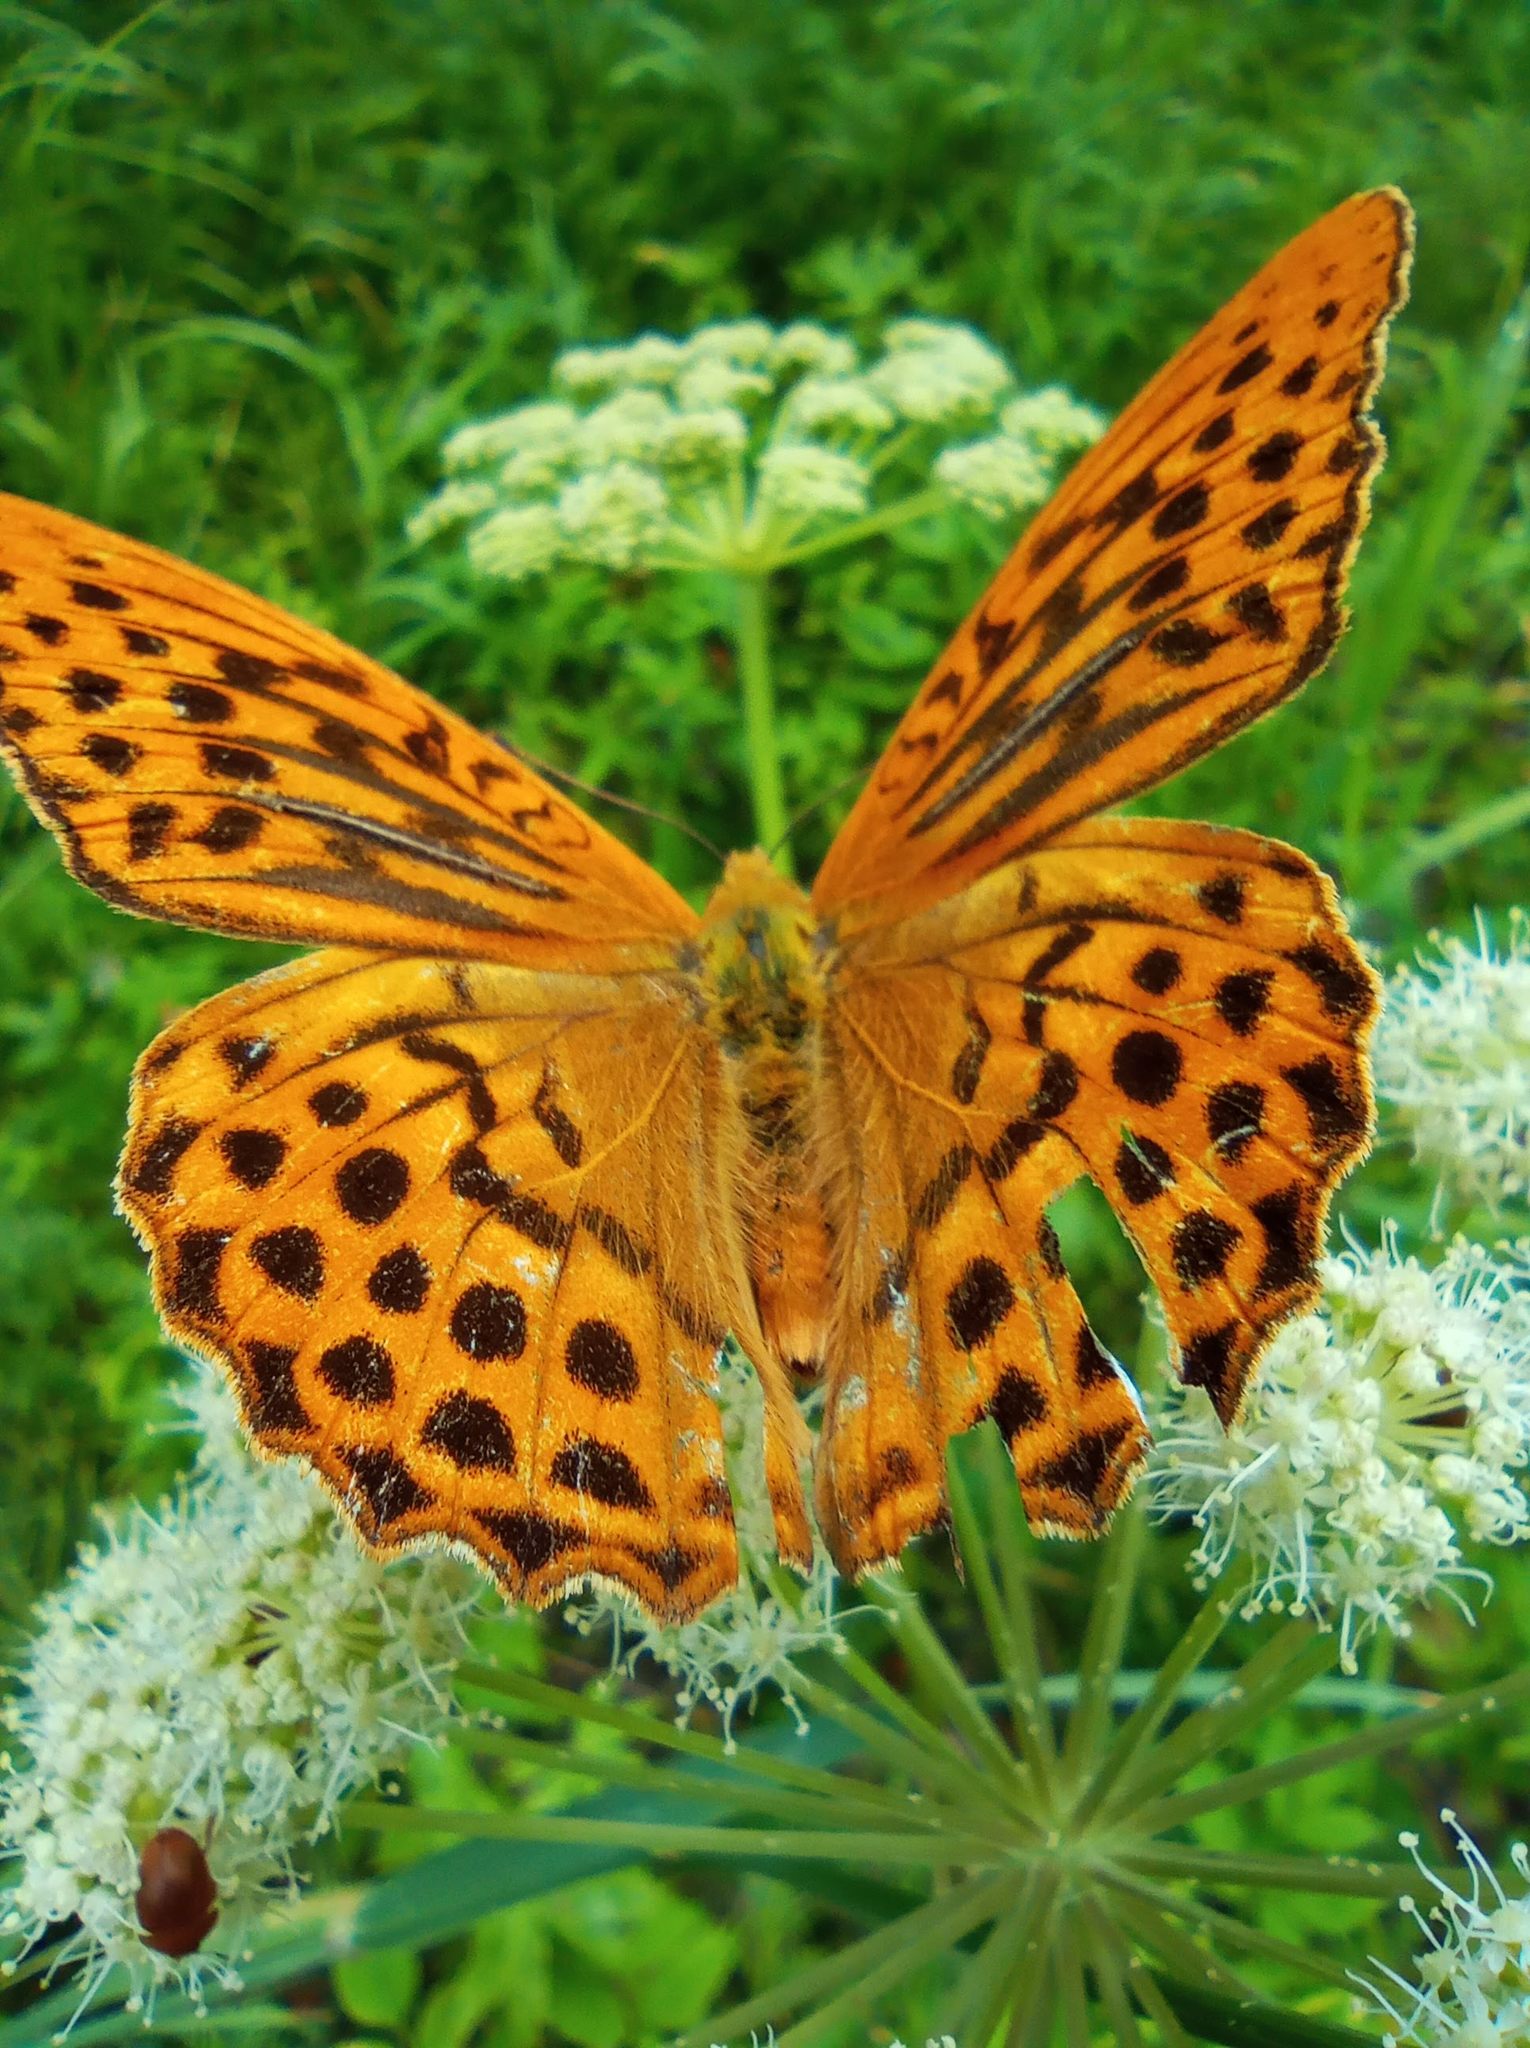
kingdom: Animalia
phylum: Arthropoda
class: Insecta
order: Lepidoptera
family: Nymphalidae
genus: Argynnis
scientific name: Argynnis paphia
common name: Silver-washed fritillary
